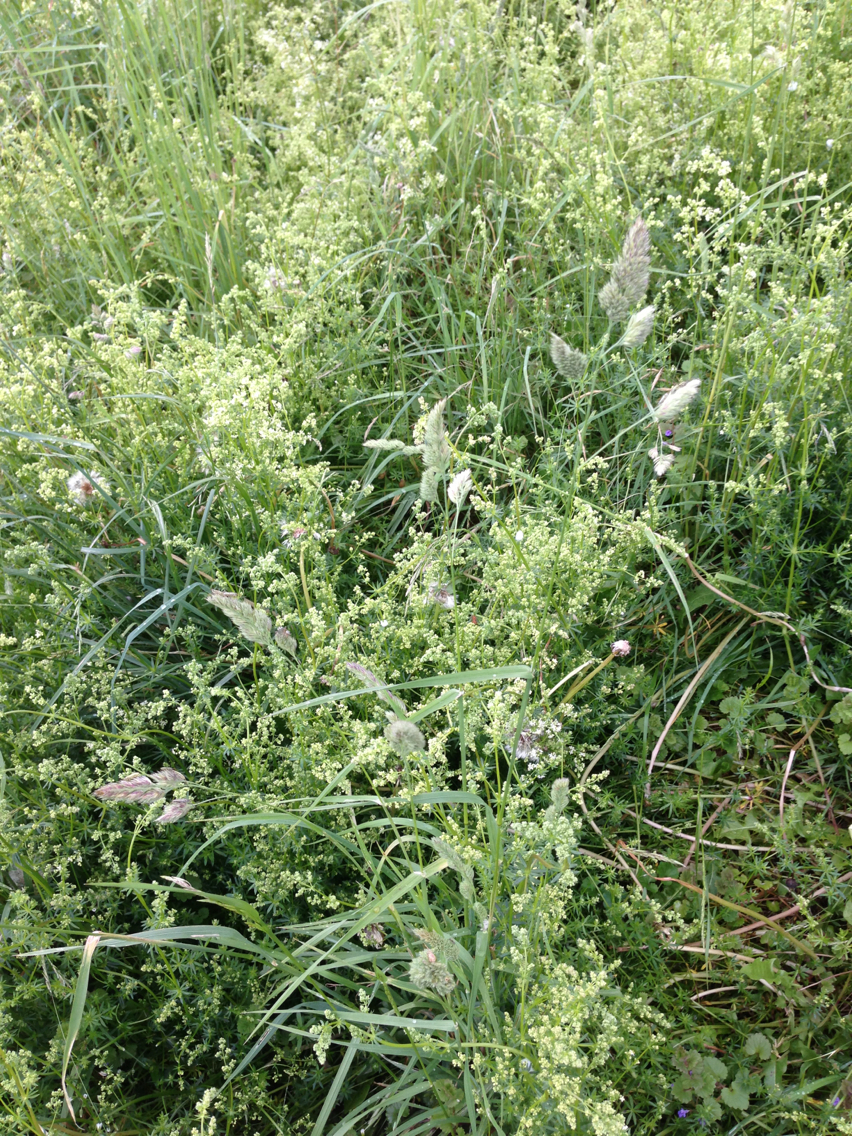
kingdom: Plantae
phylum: Tracheophyta
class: Liliopsida
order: Poales
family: Poaceae
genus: Dactylis
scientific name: Dactylis glomerata
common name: Orchardgrass
